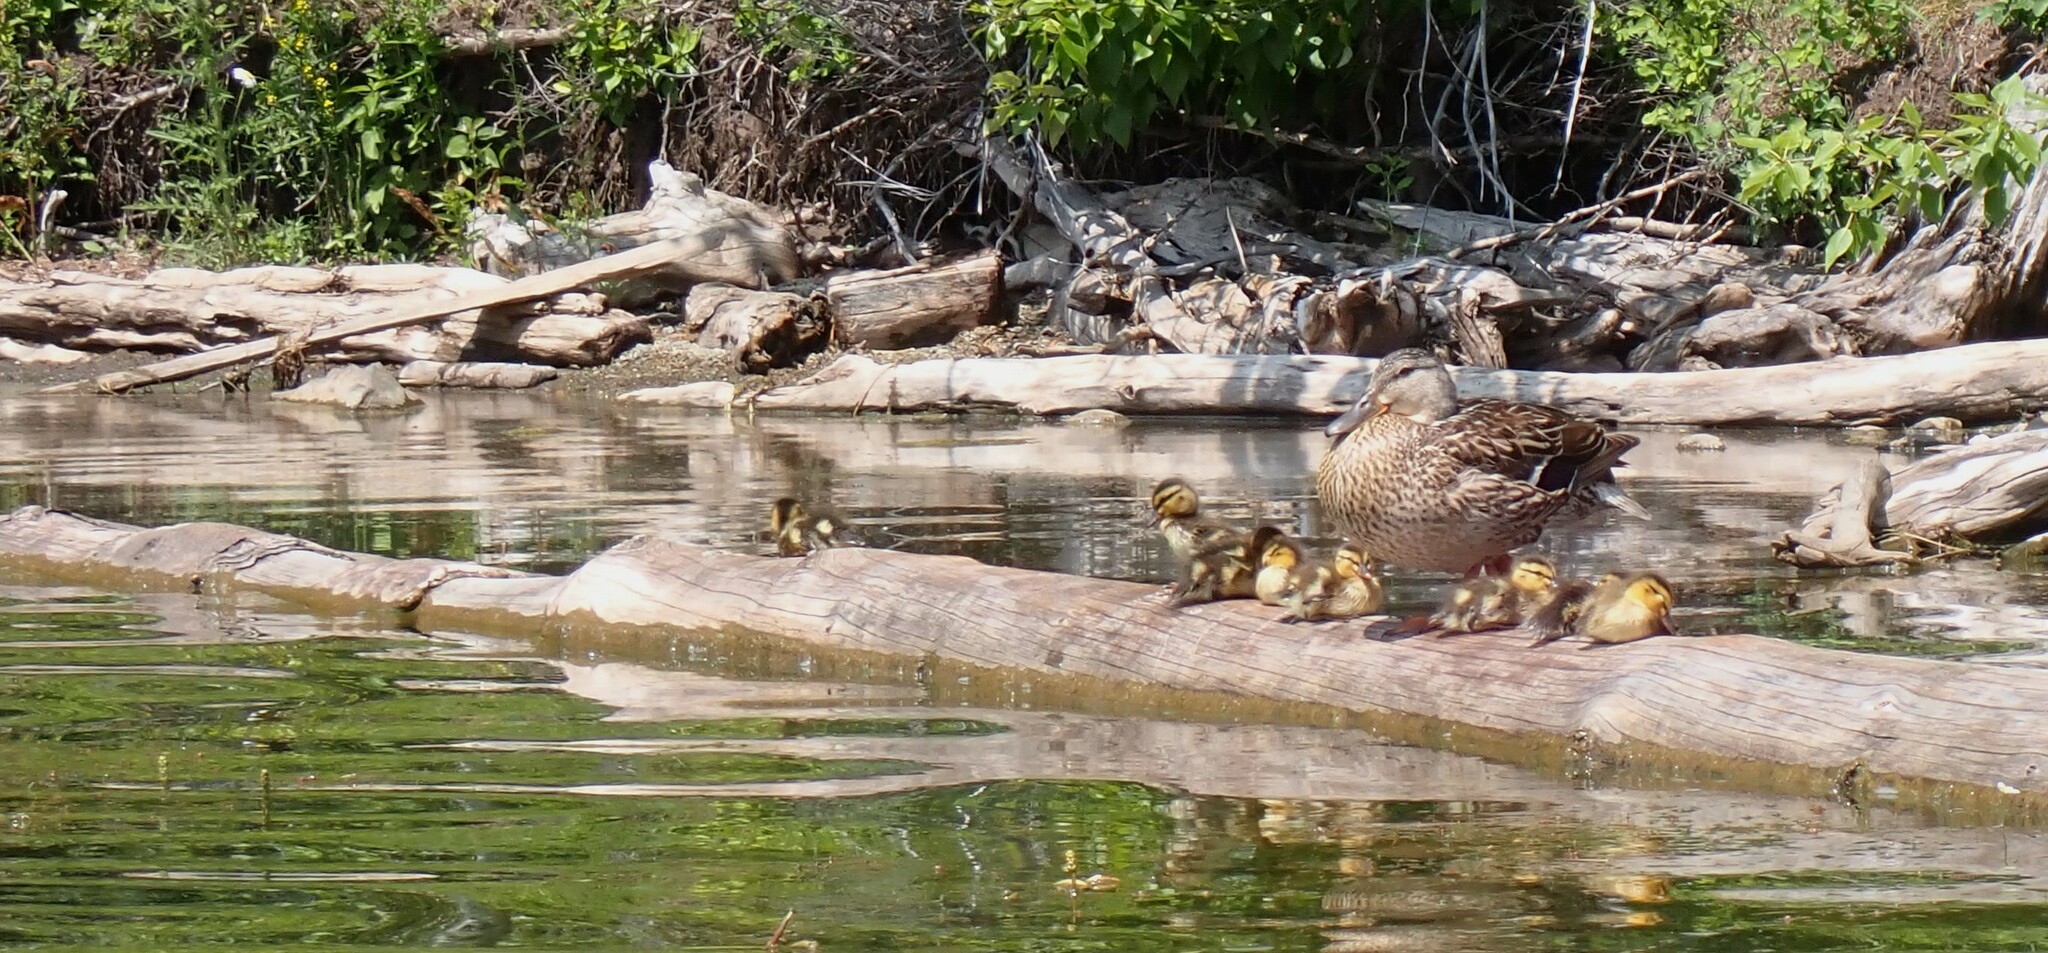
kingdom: Animalia
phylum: Chordata
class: Aves
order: Anseriformes
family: Anatidae
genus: Anas
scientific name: Anas platyrhynchos
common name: Mallard
